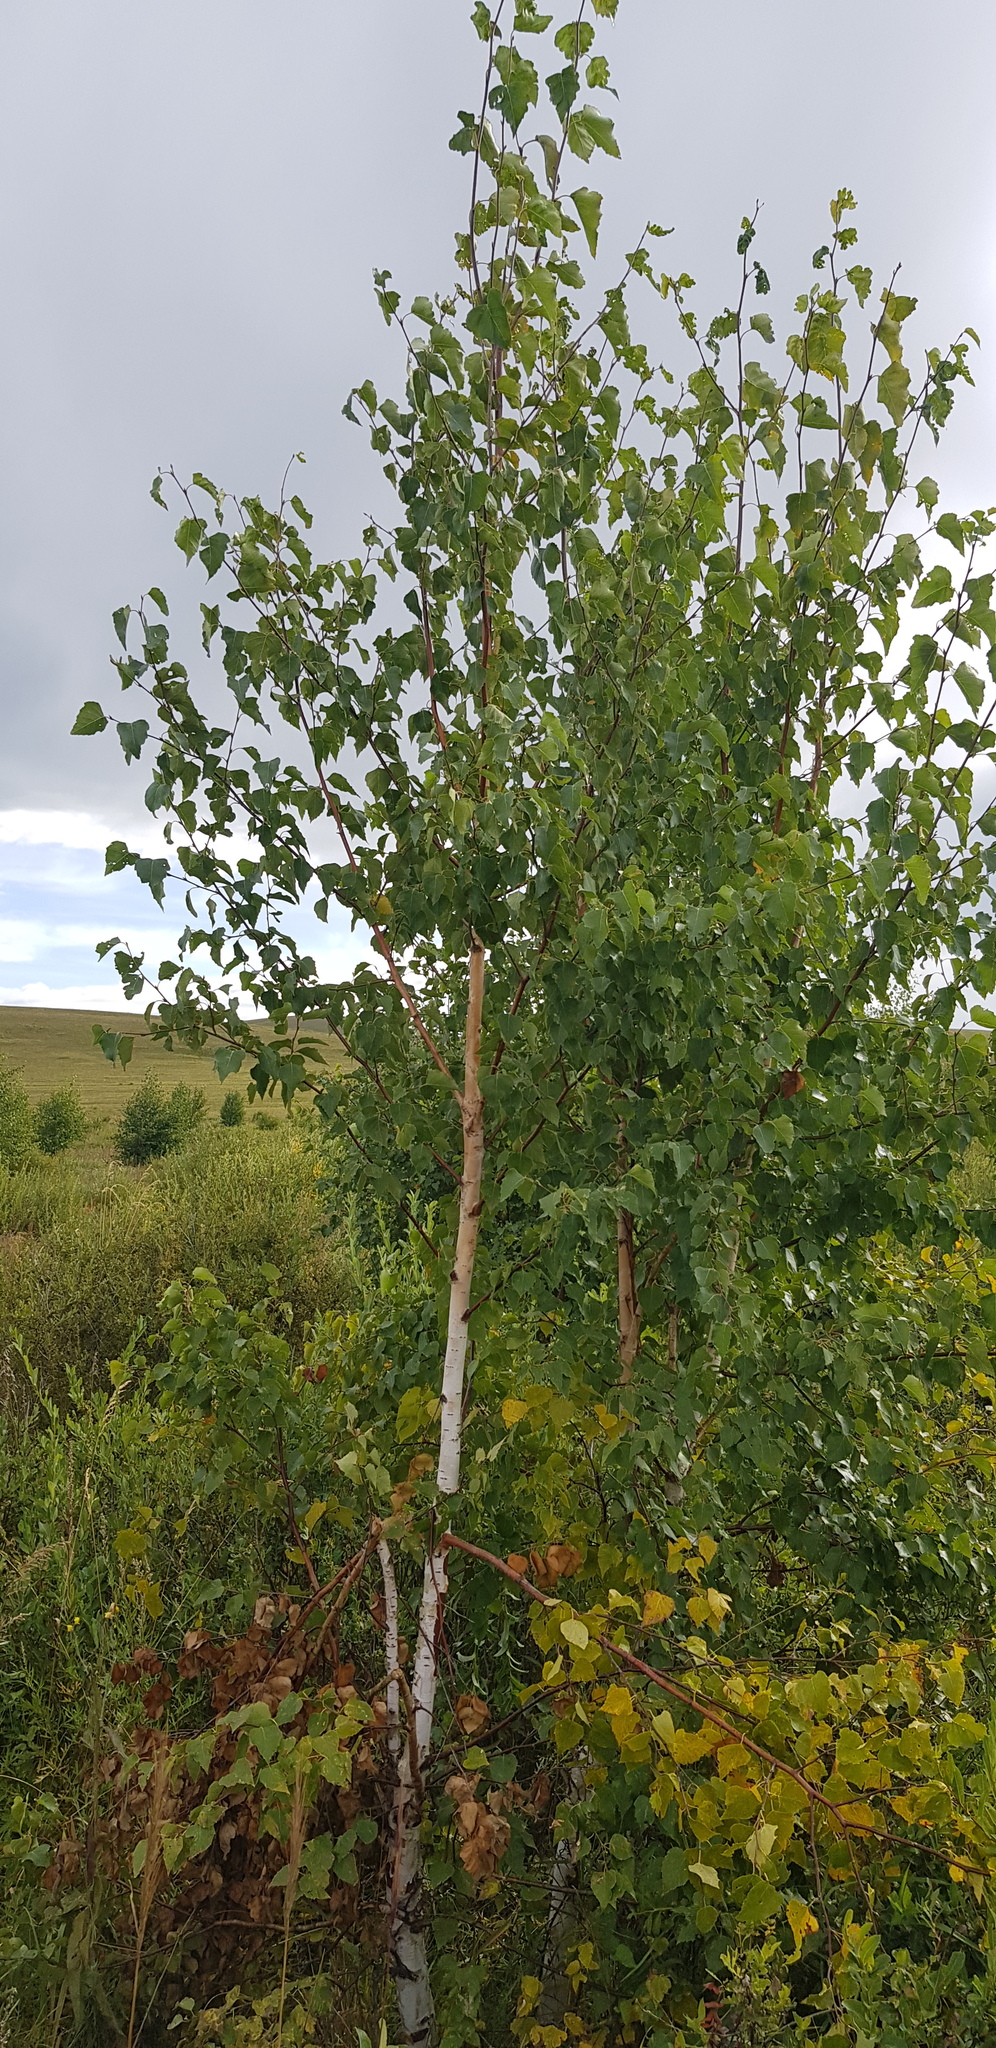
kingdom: Plantae
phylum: Tracheophyta
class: Magnoliopsida
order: Fagales
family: Betulaceae
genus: Betula
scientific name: Betula pendula
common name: Silver birch
